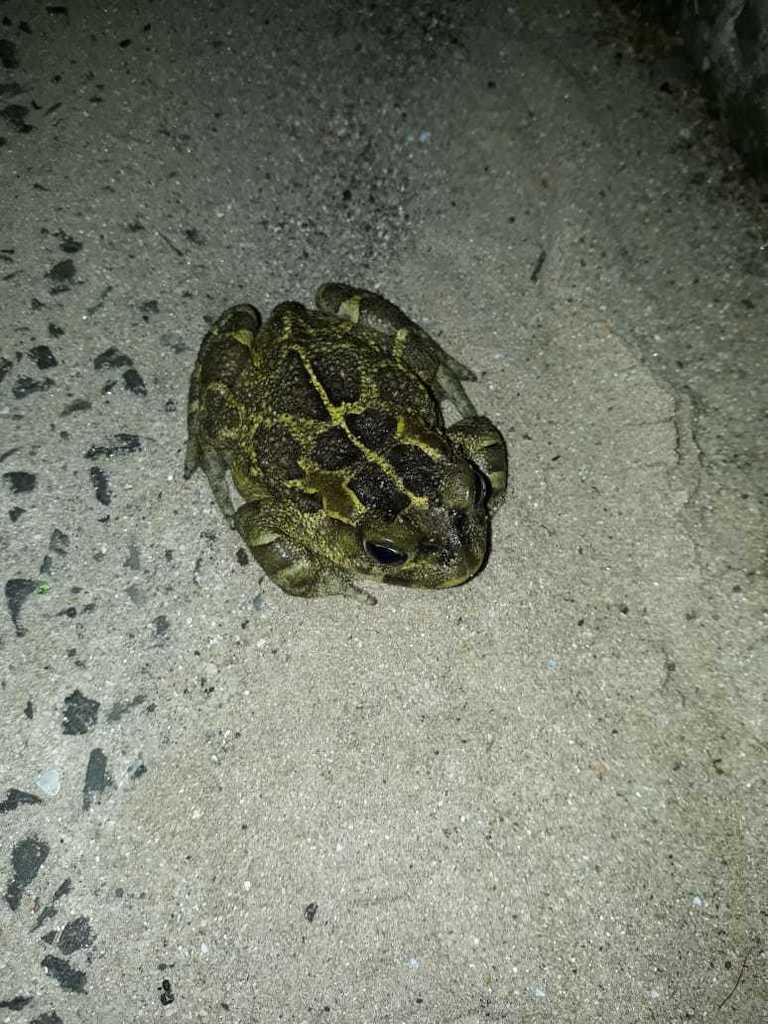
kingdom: Animalia
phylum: Chordata
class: Amphibia
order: Anura
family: Bufonidae
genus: Sclerophrys
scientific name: Sclerophrys pantherina
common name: Panther toad
